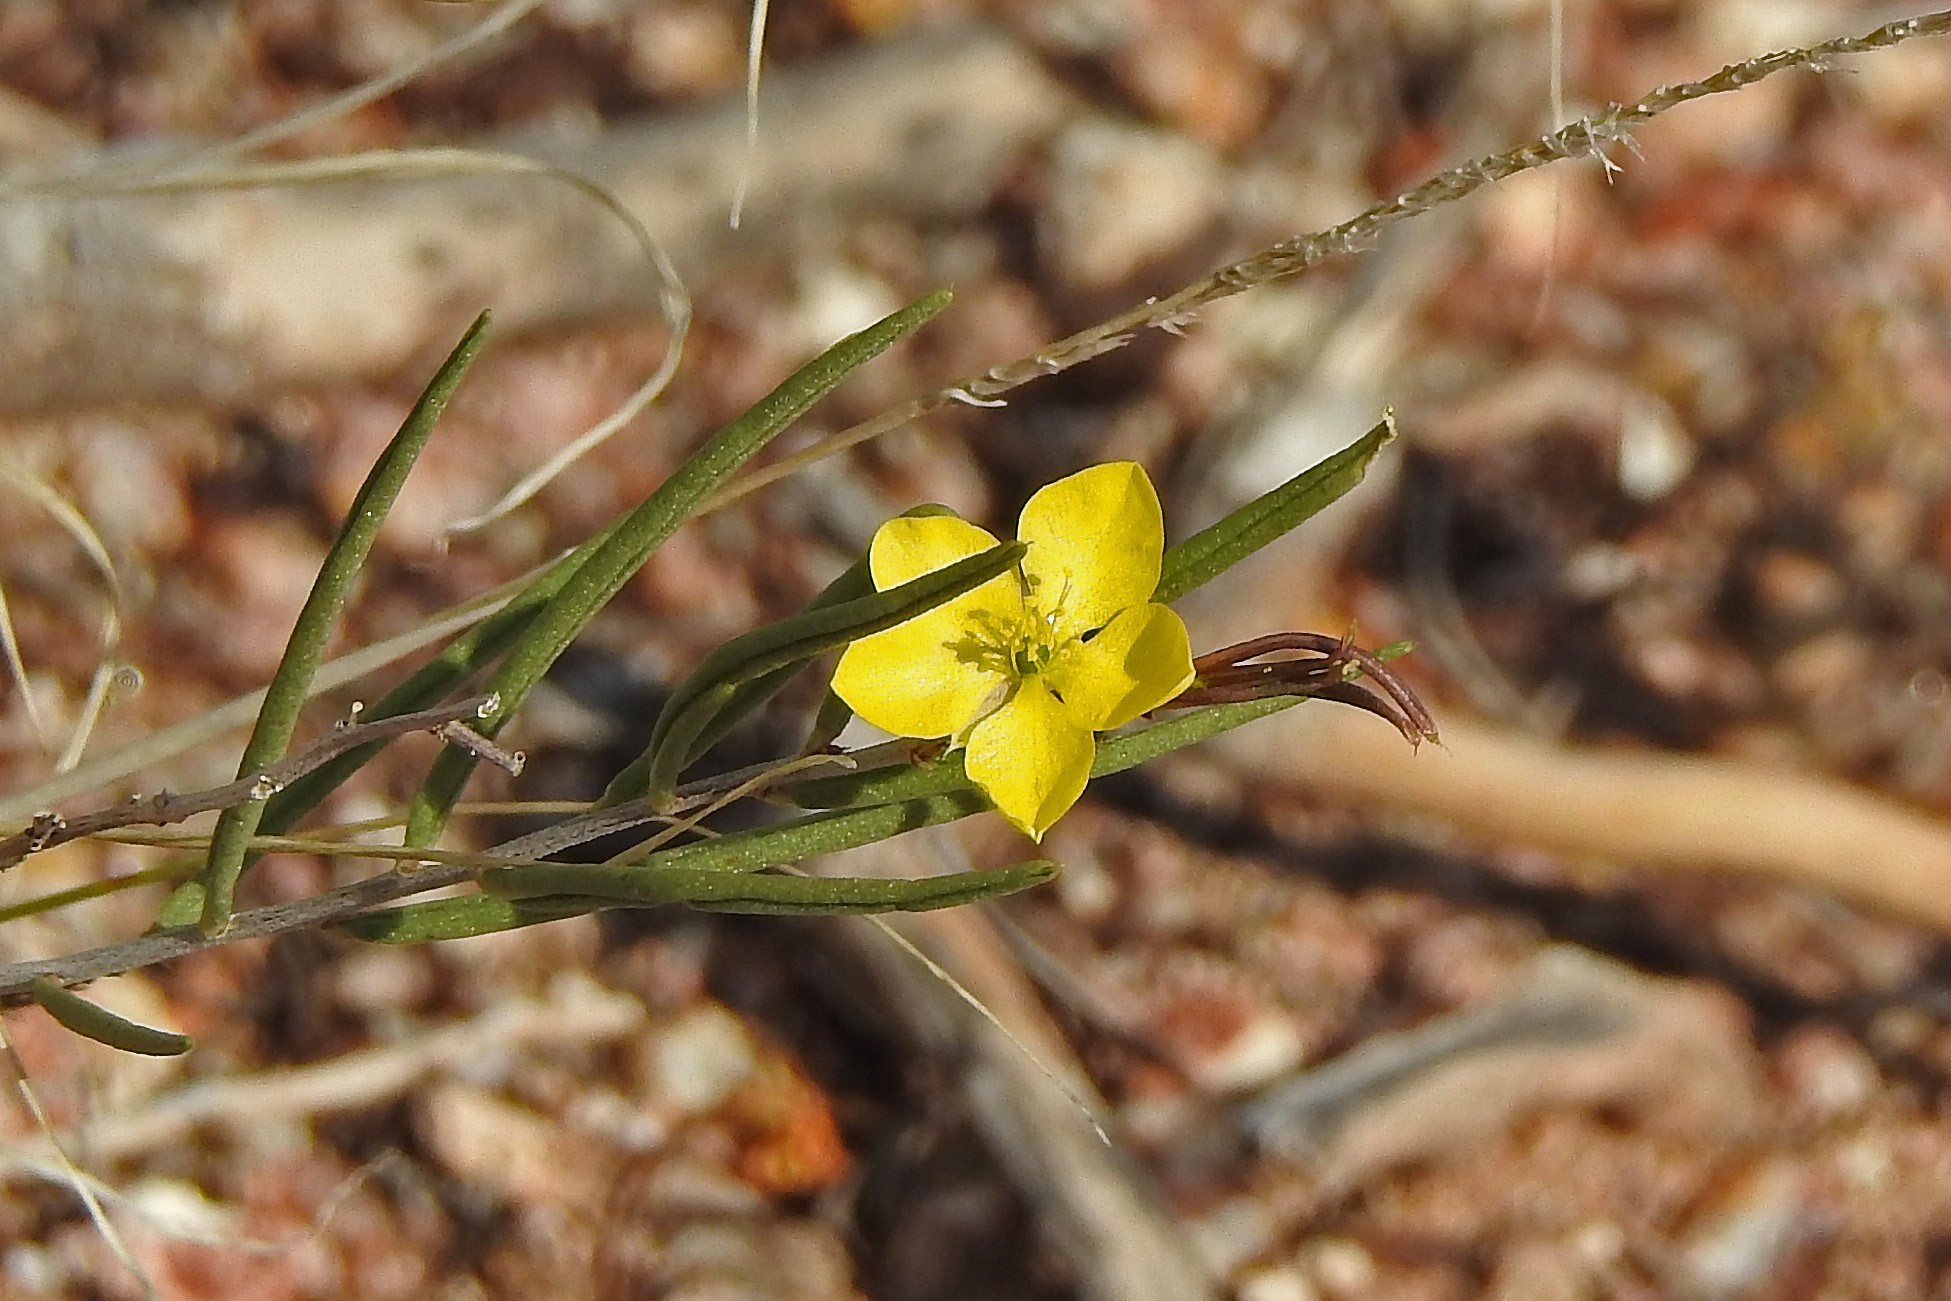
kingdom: Plantae
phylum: Tracheophyta
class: Magnoliopsida
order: Caryophyllales
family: Talinaceae
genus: Talinum
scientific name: Talinum polygaloides
